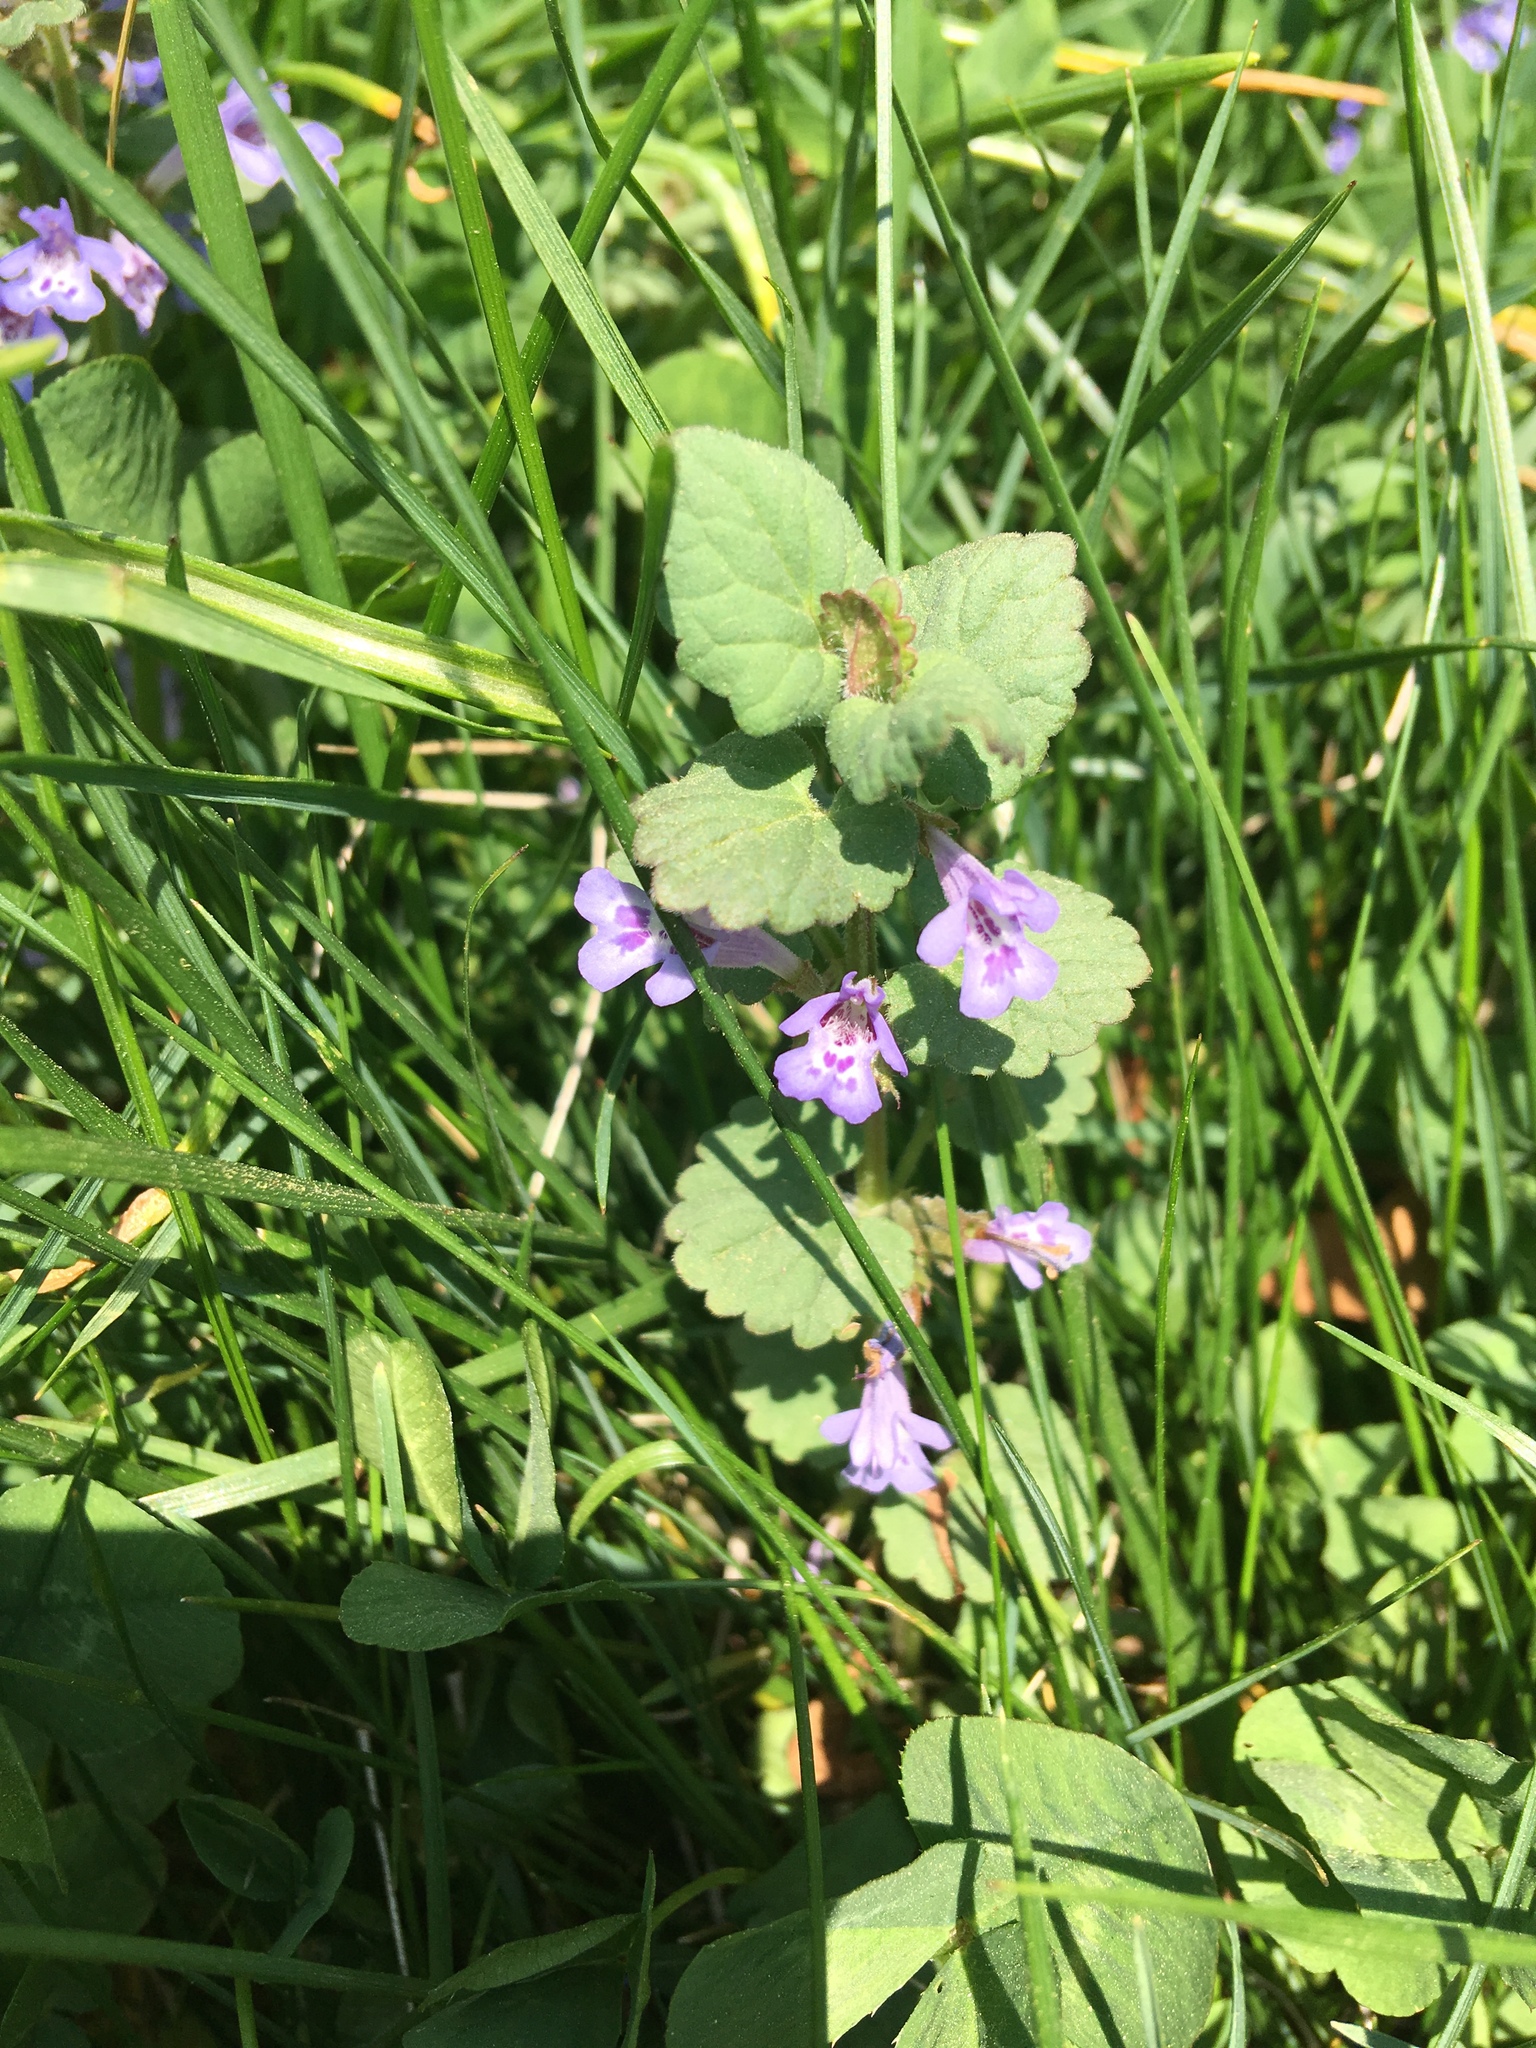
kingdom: Plantae
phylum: Tracheophyta
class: Magnoliopsida
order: Lamiales
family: Lamiaceae
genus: Glechoma
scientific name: Glechoma hederacea
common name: Ground ivy
